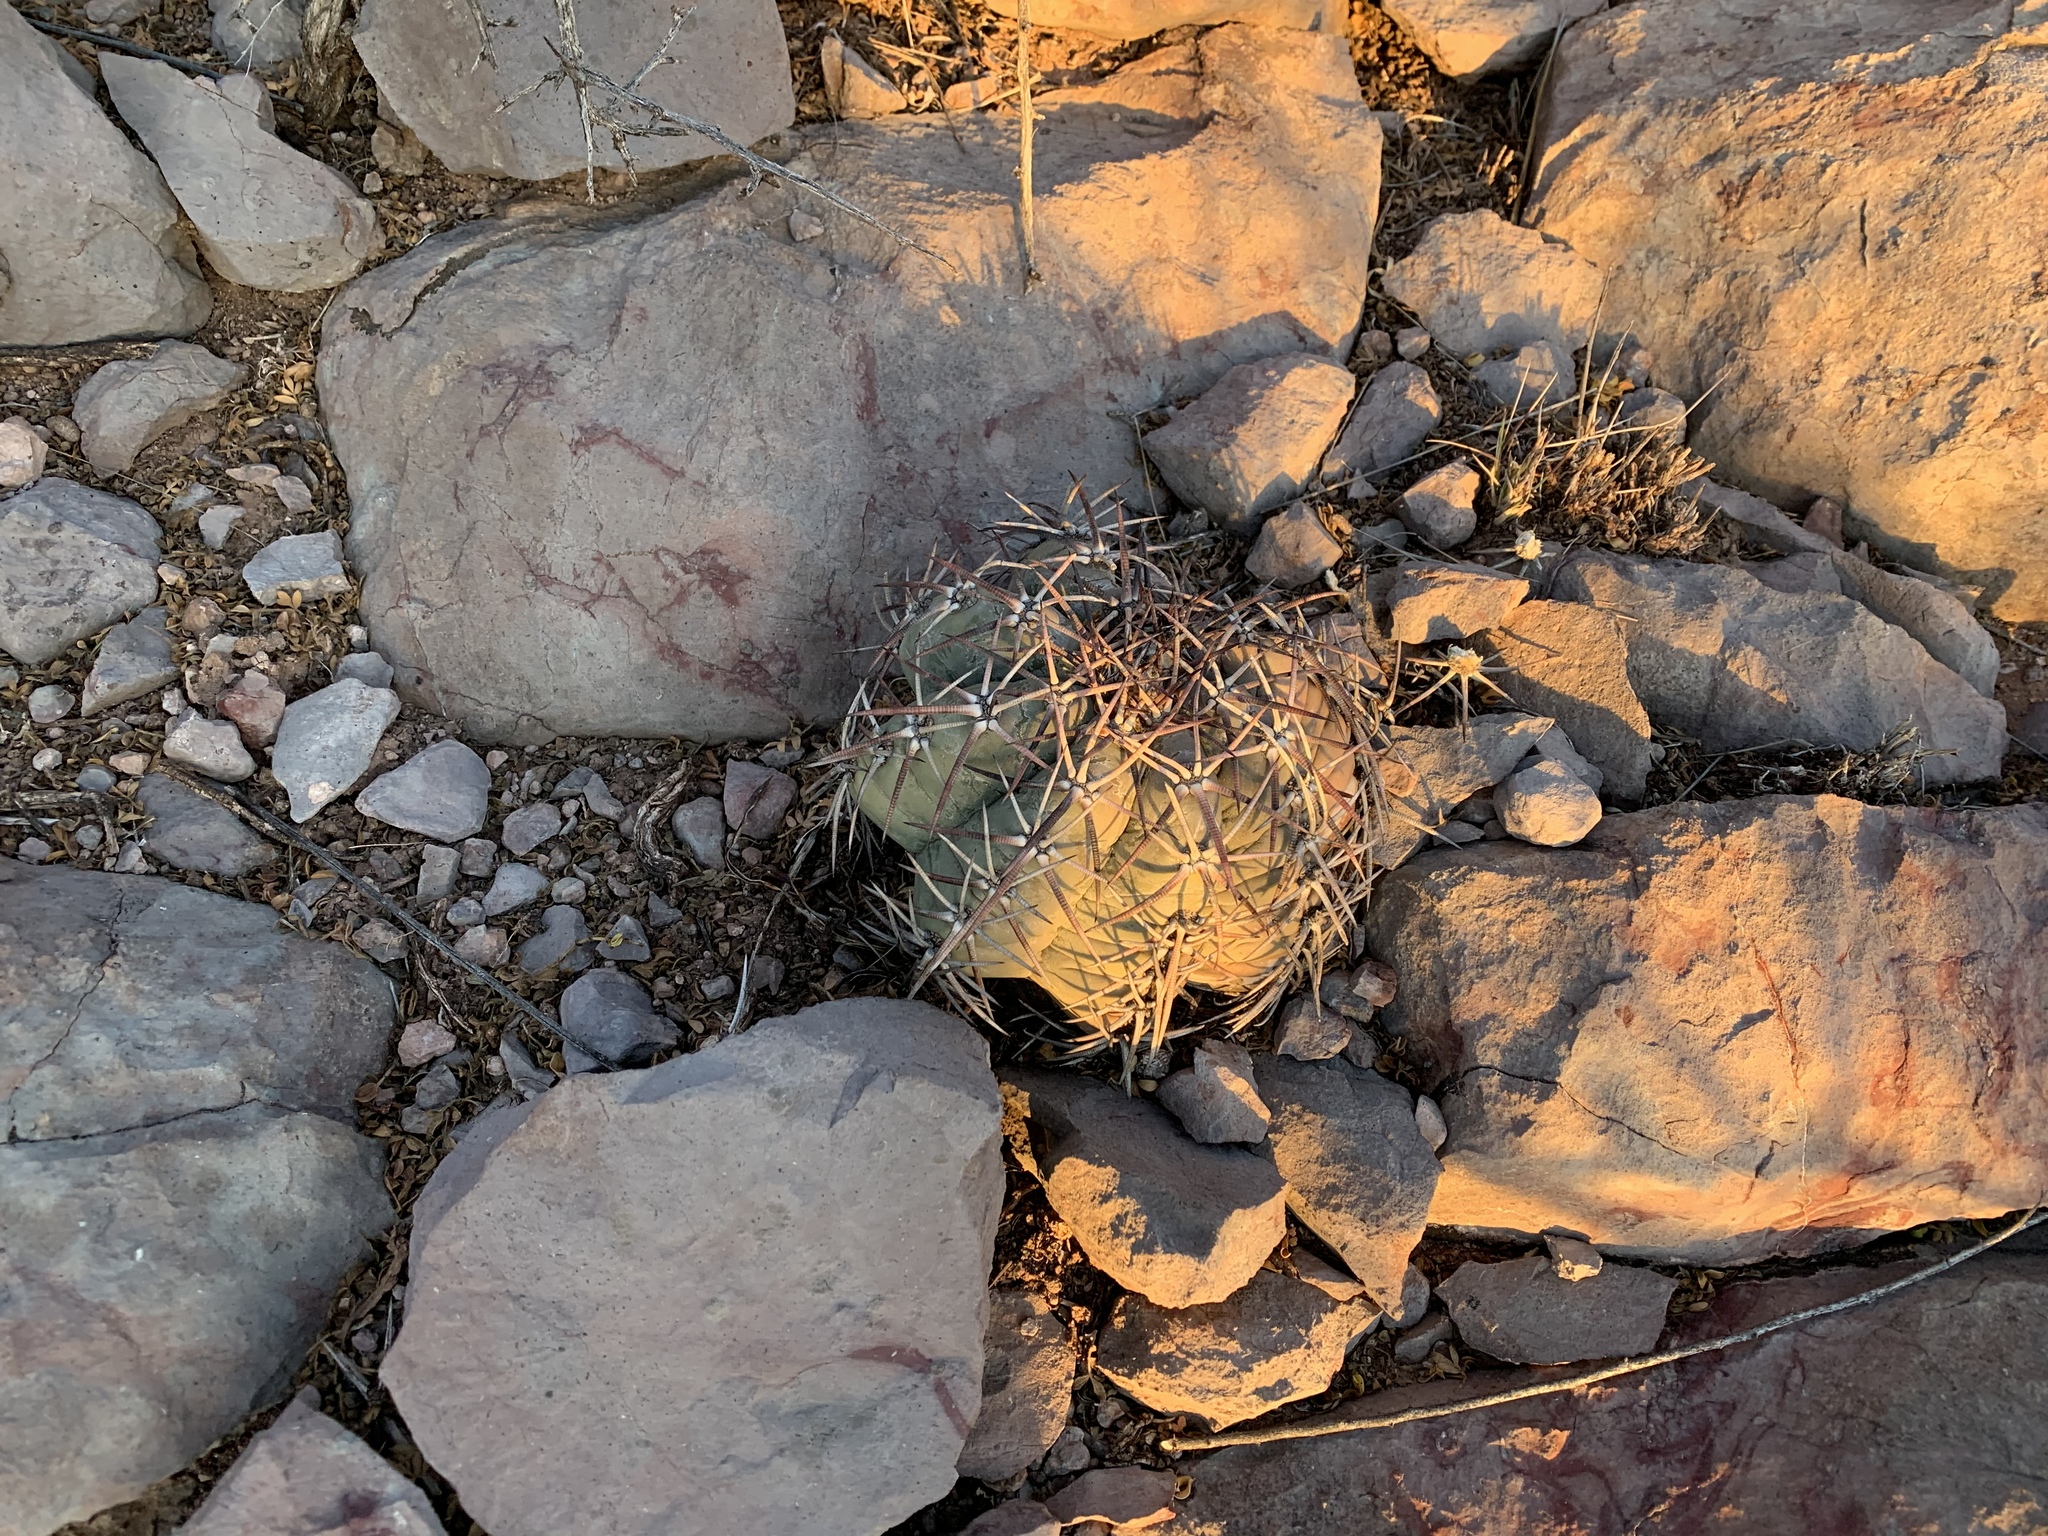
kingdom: Plantae
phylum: Tracheophyta
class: Magnoliopsida
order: Caryophyllales
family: Cactaceae
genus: Echinocactus
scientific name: Echinocactus horizonthalonius
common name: Devilshead
